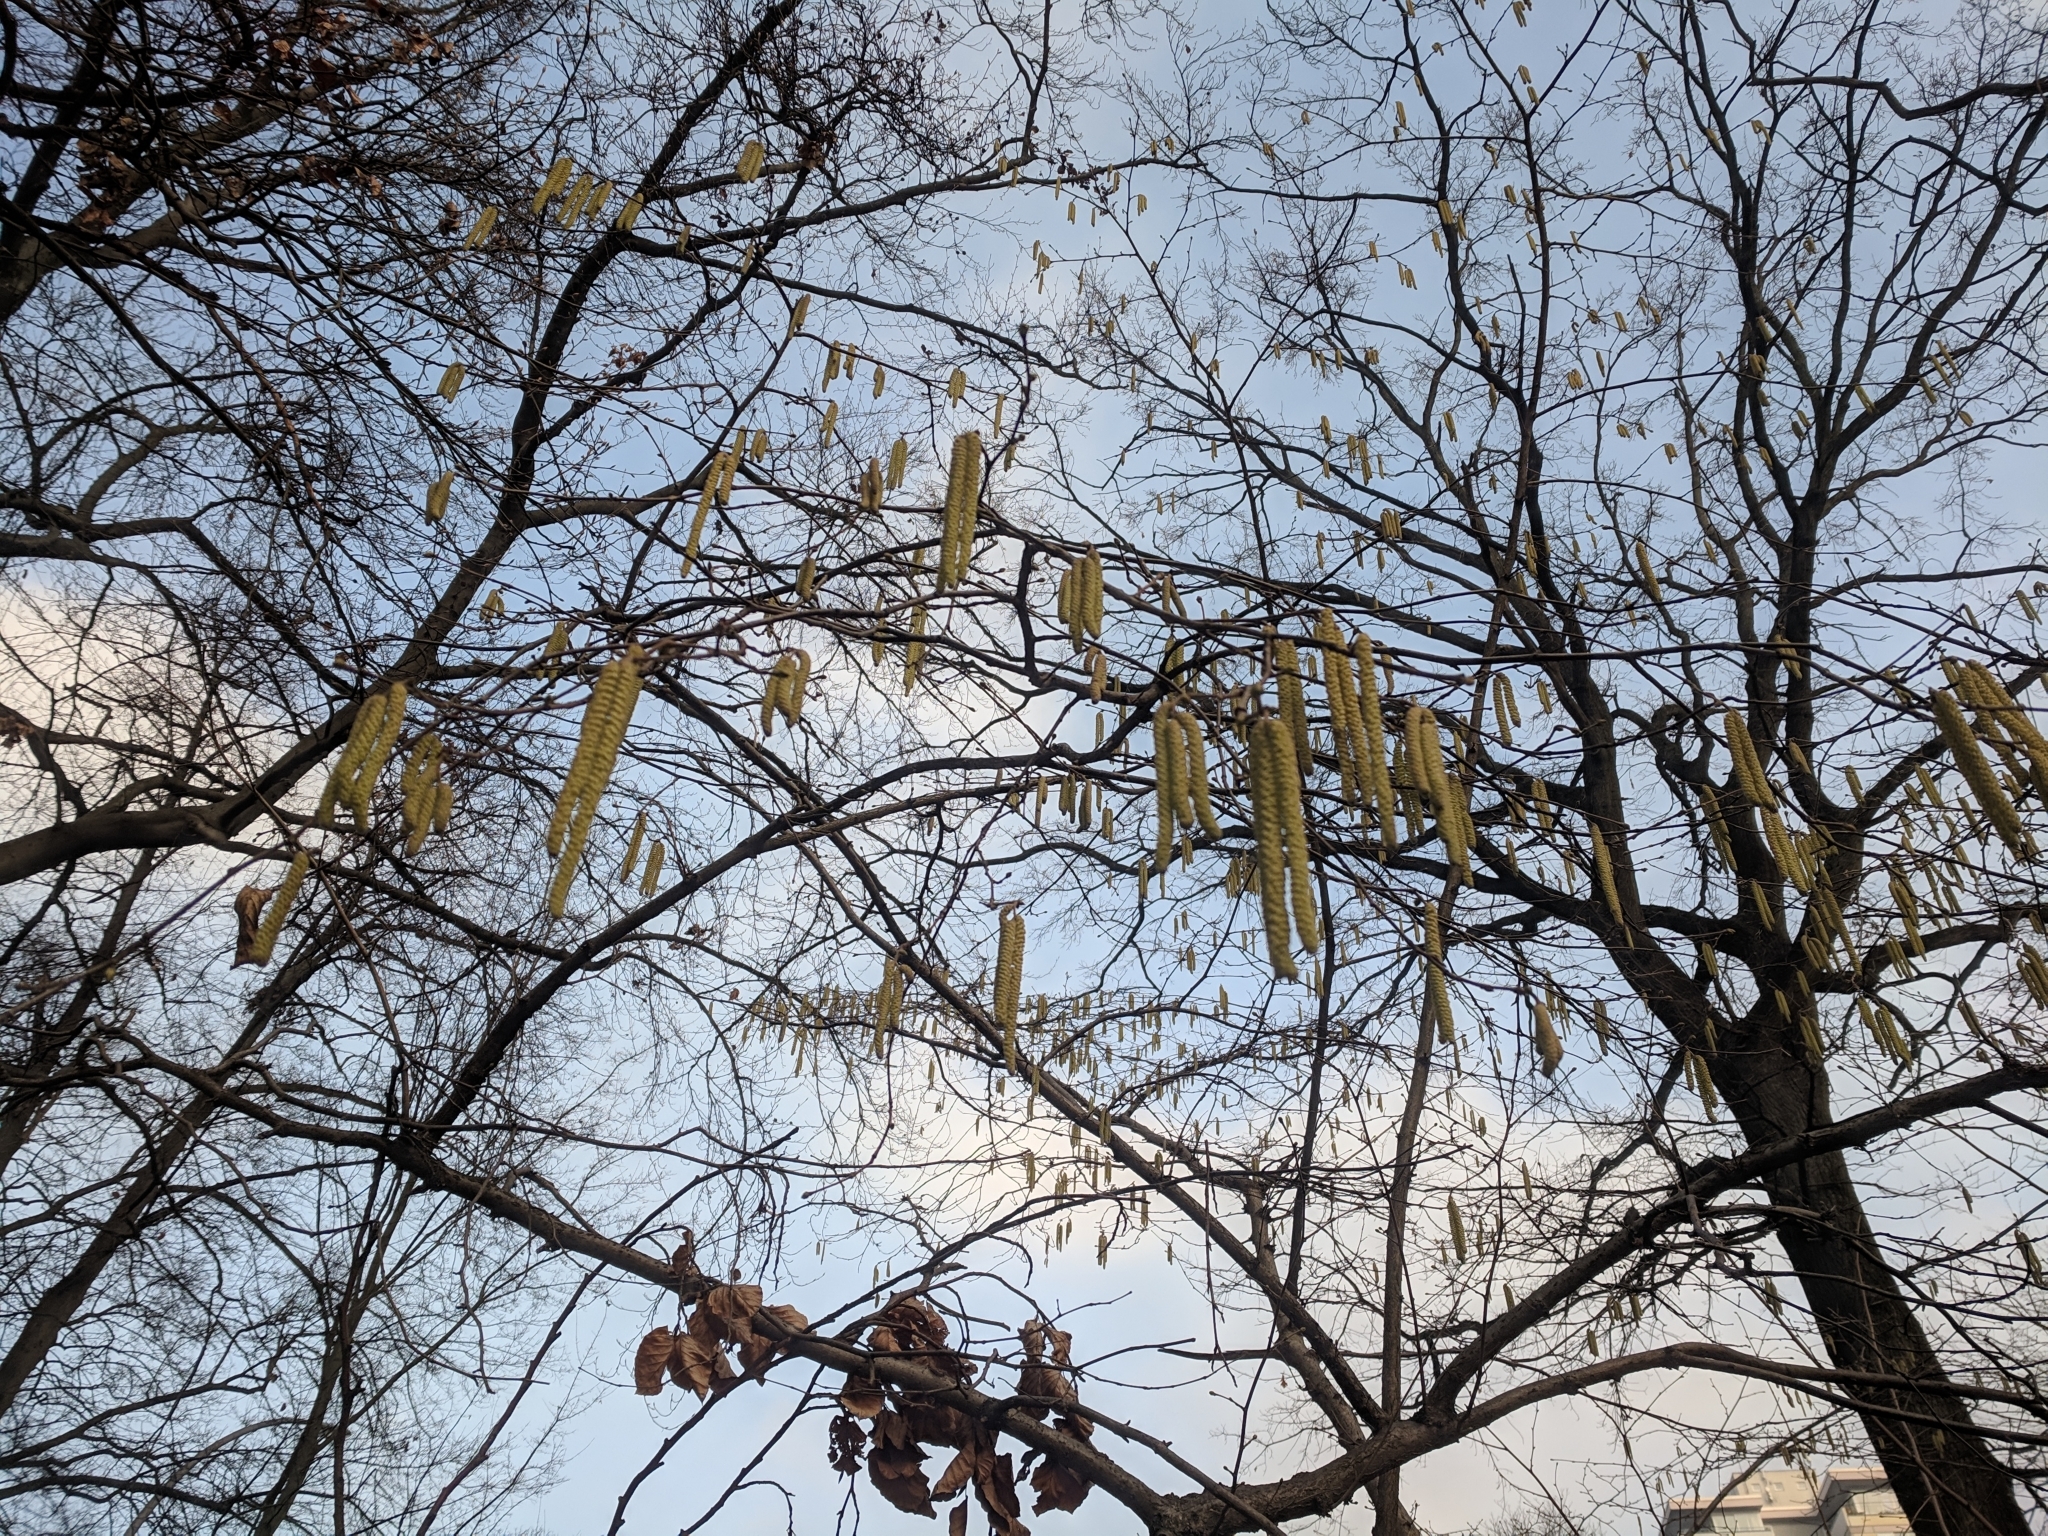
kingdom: Plantae
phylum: Tracheophyta
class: Magnoliopsida
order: Fagales
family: Betulaceae
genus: Corylus
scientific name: Corylus avellana
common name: European hazel
